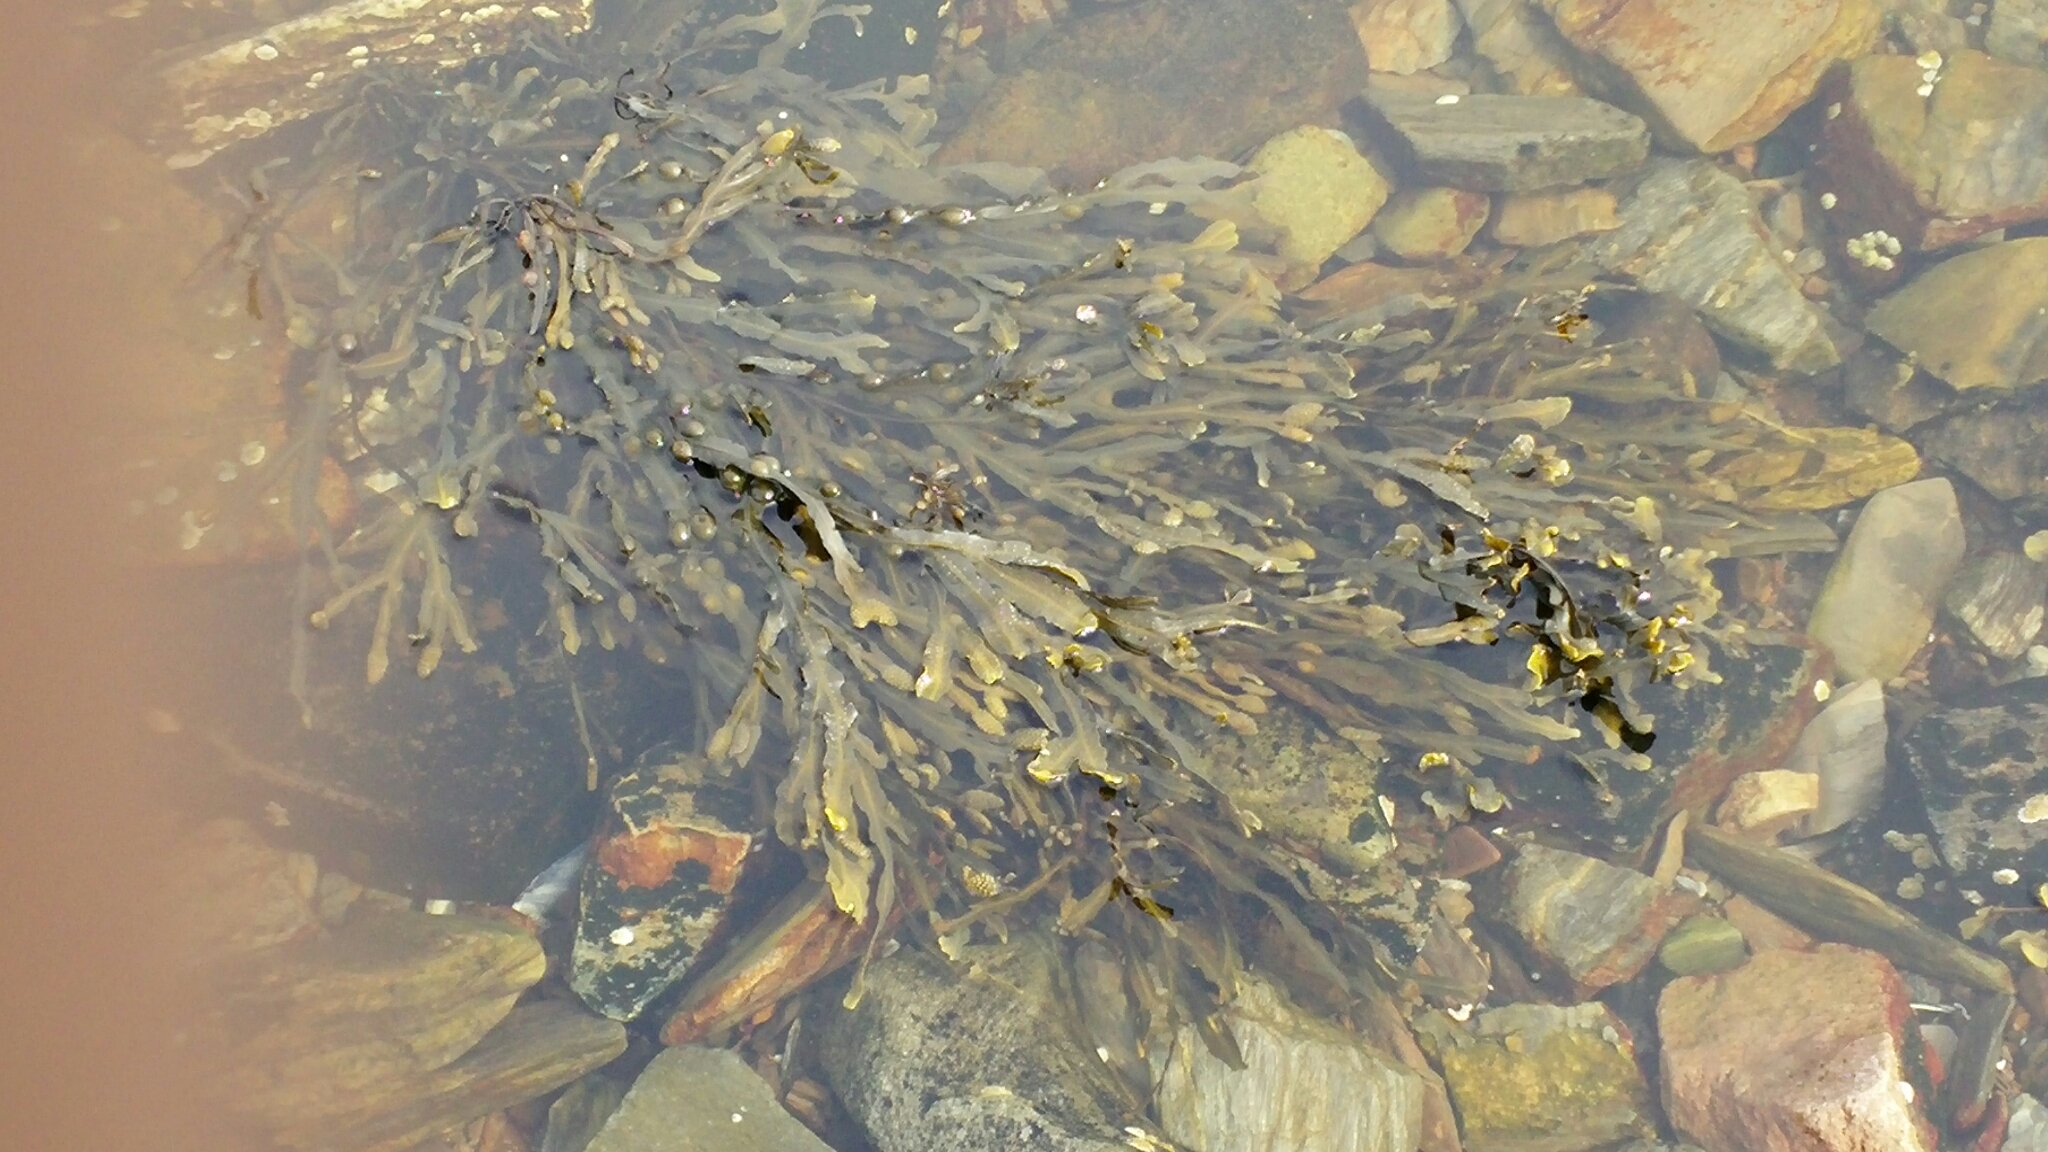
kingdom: Chromista
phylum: Ochrophyta
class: Phaeophyceae
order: Fucales
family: Fucaceae
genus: Fucus
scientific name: Fucus vesiculosus
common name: Bladder wrack
